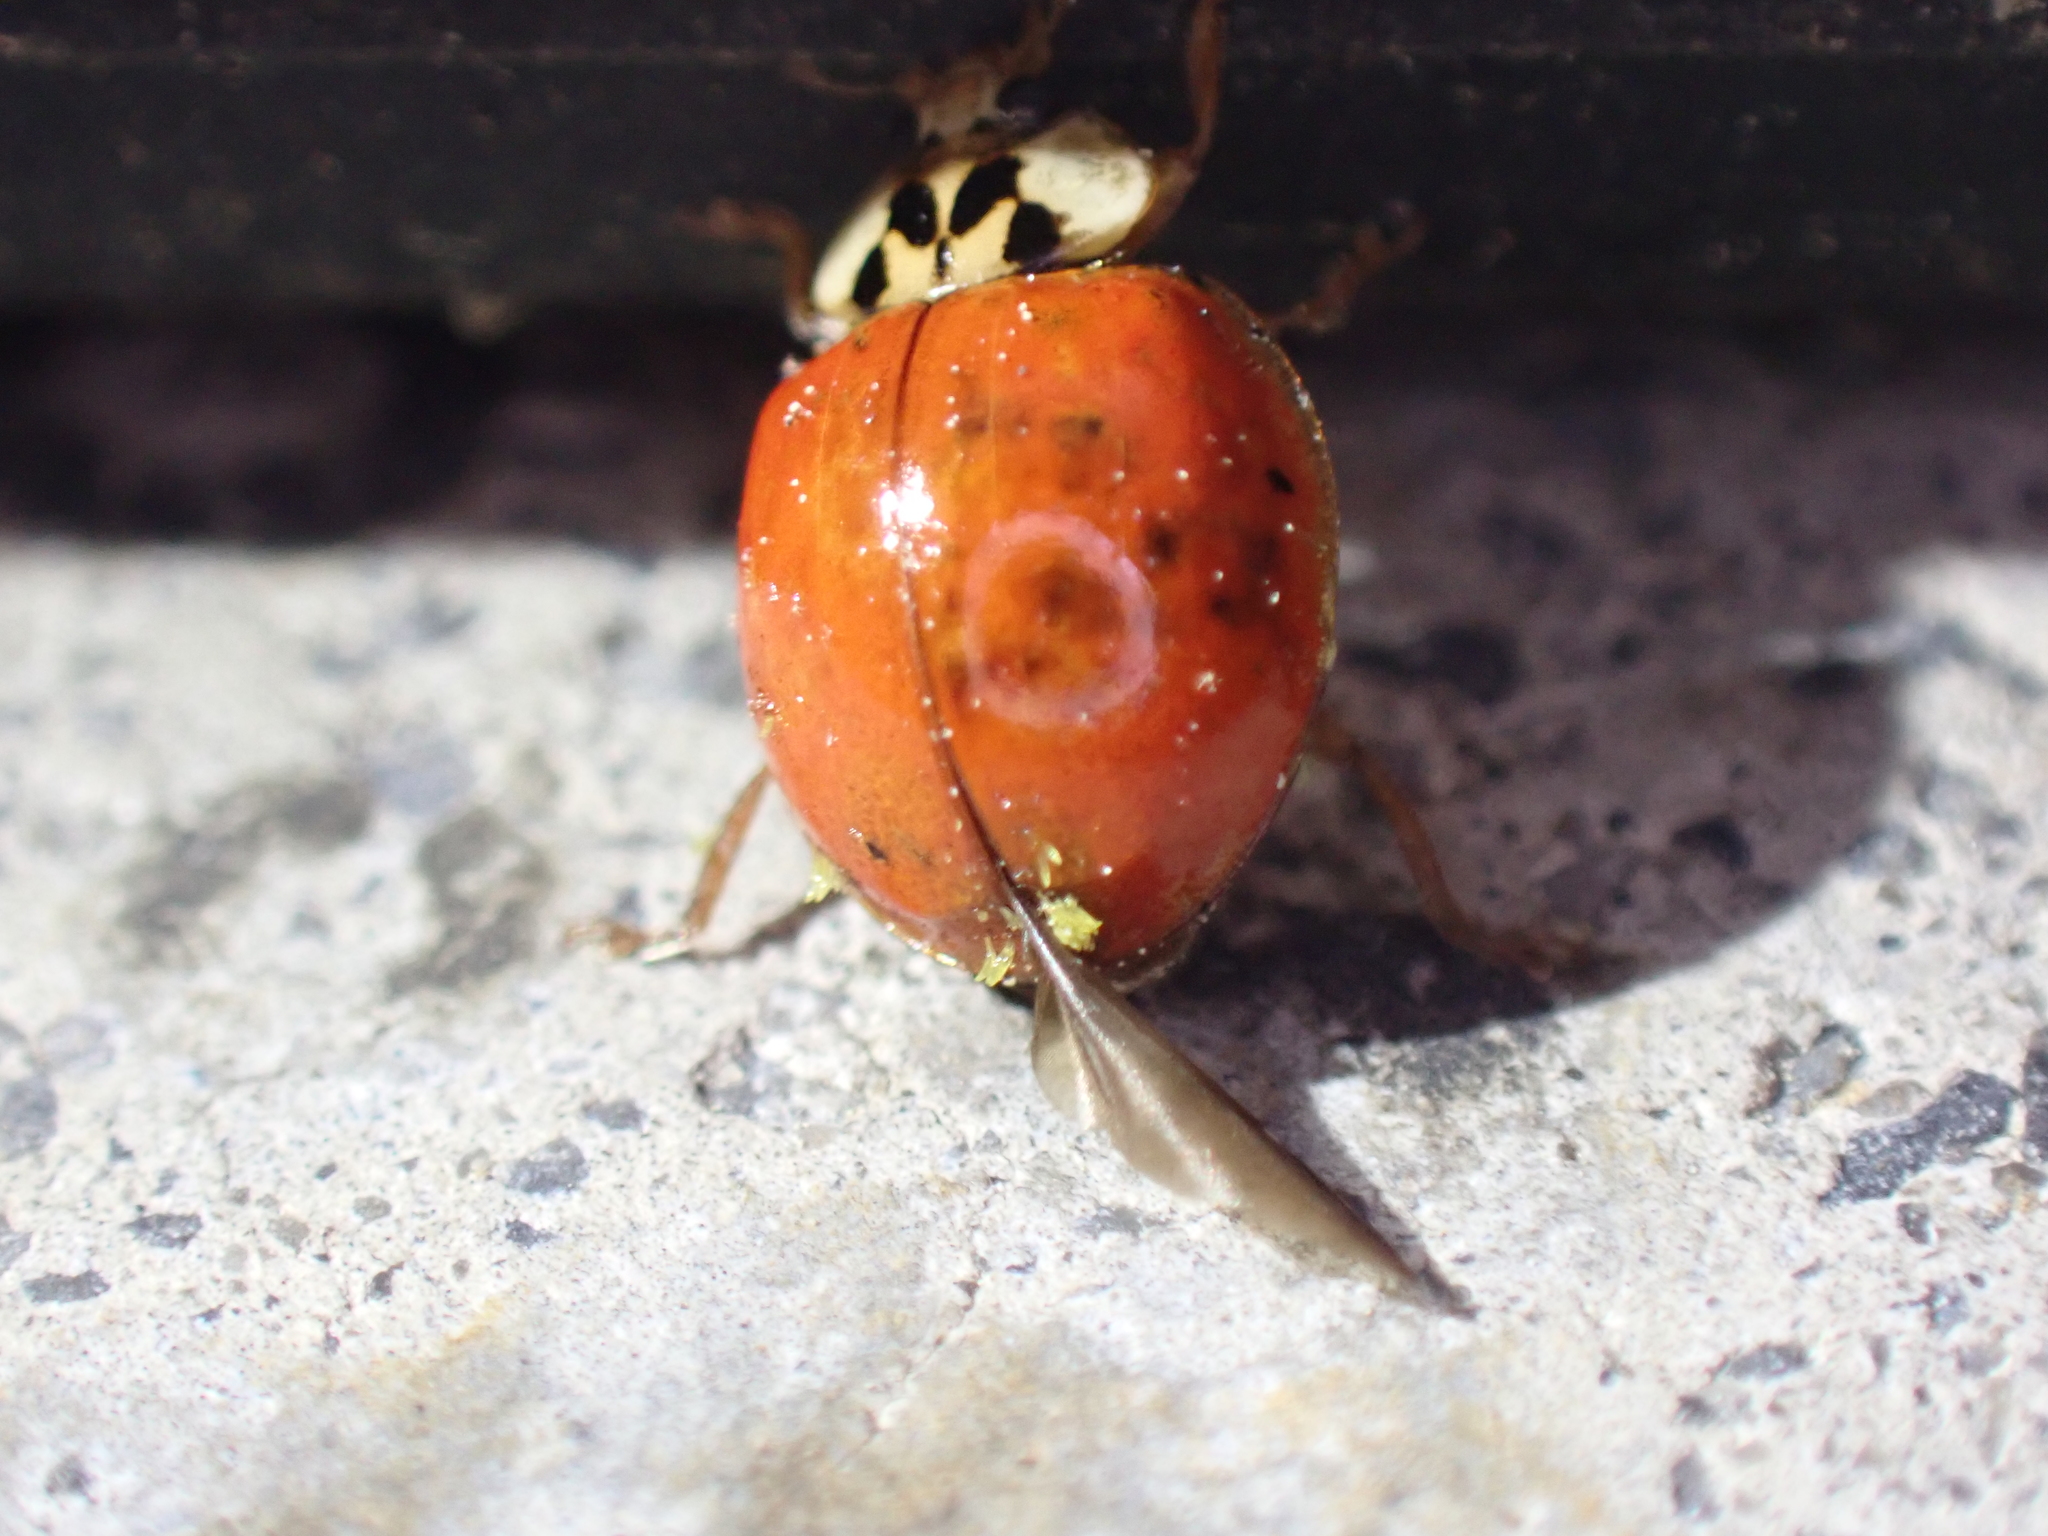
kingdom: Fungi
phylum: Ascomycota
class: Laboulbeniomycetes
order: Laboulbeniales
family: Laboulbeniaceae
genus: Hesperomyces
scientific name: Hesperomyces harmoniae
